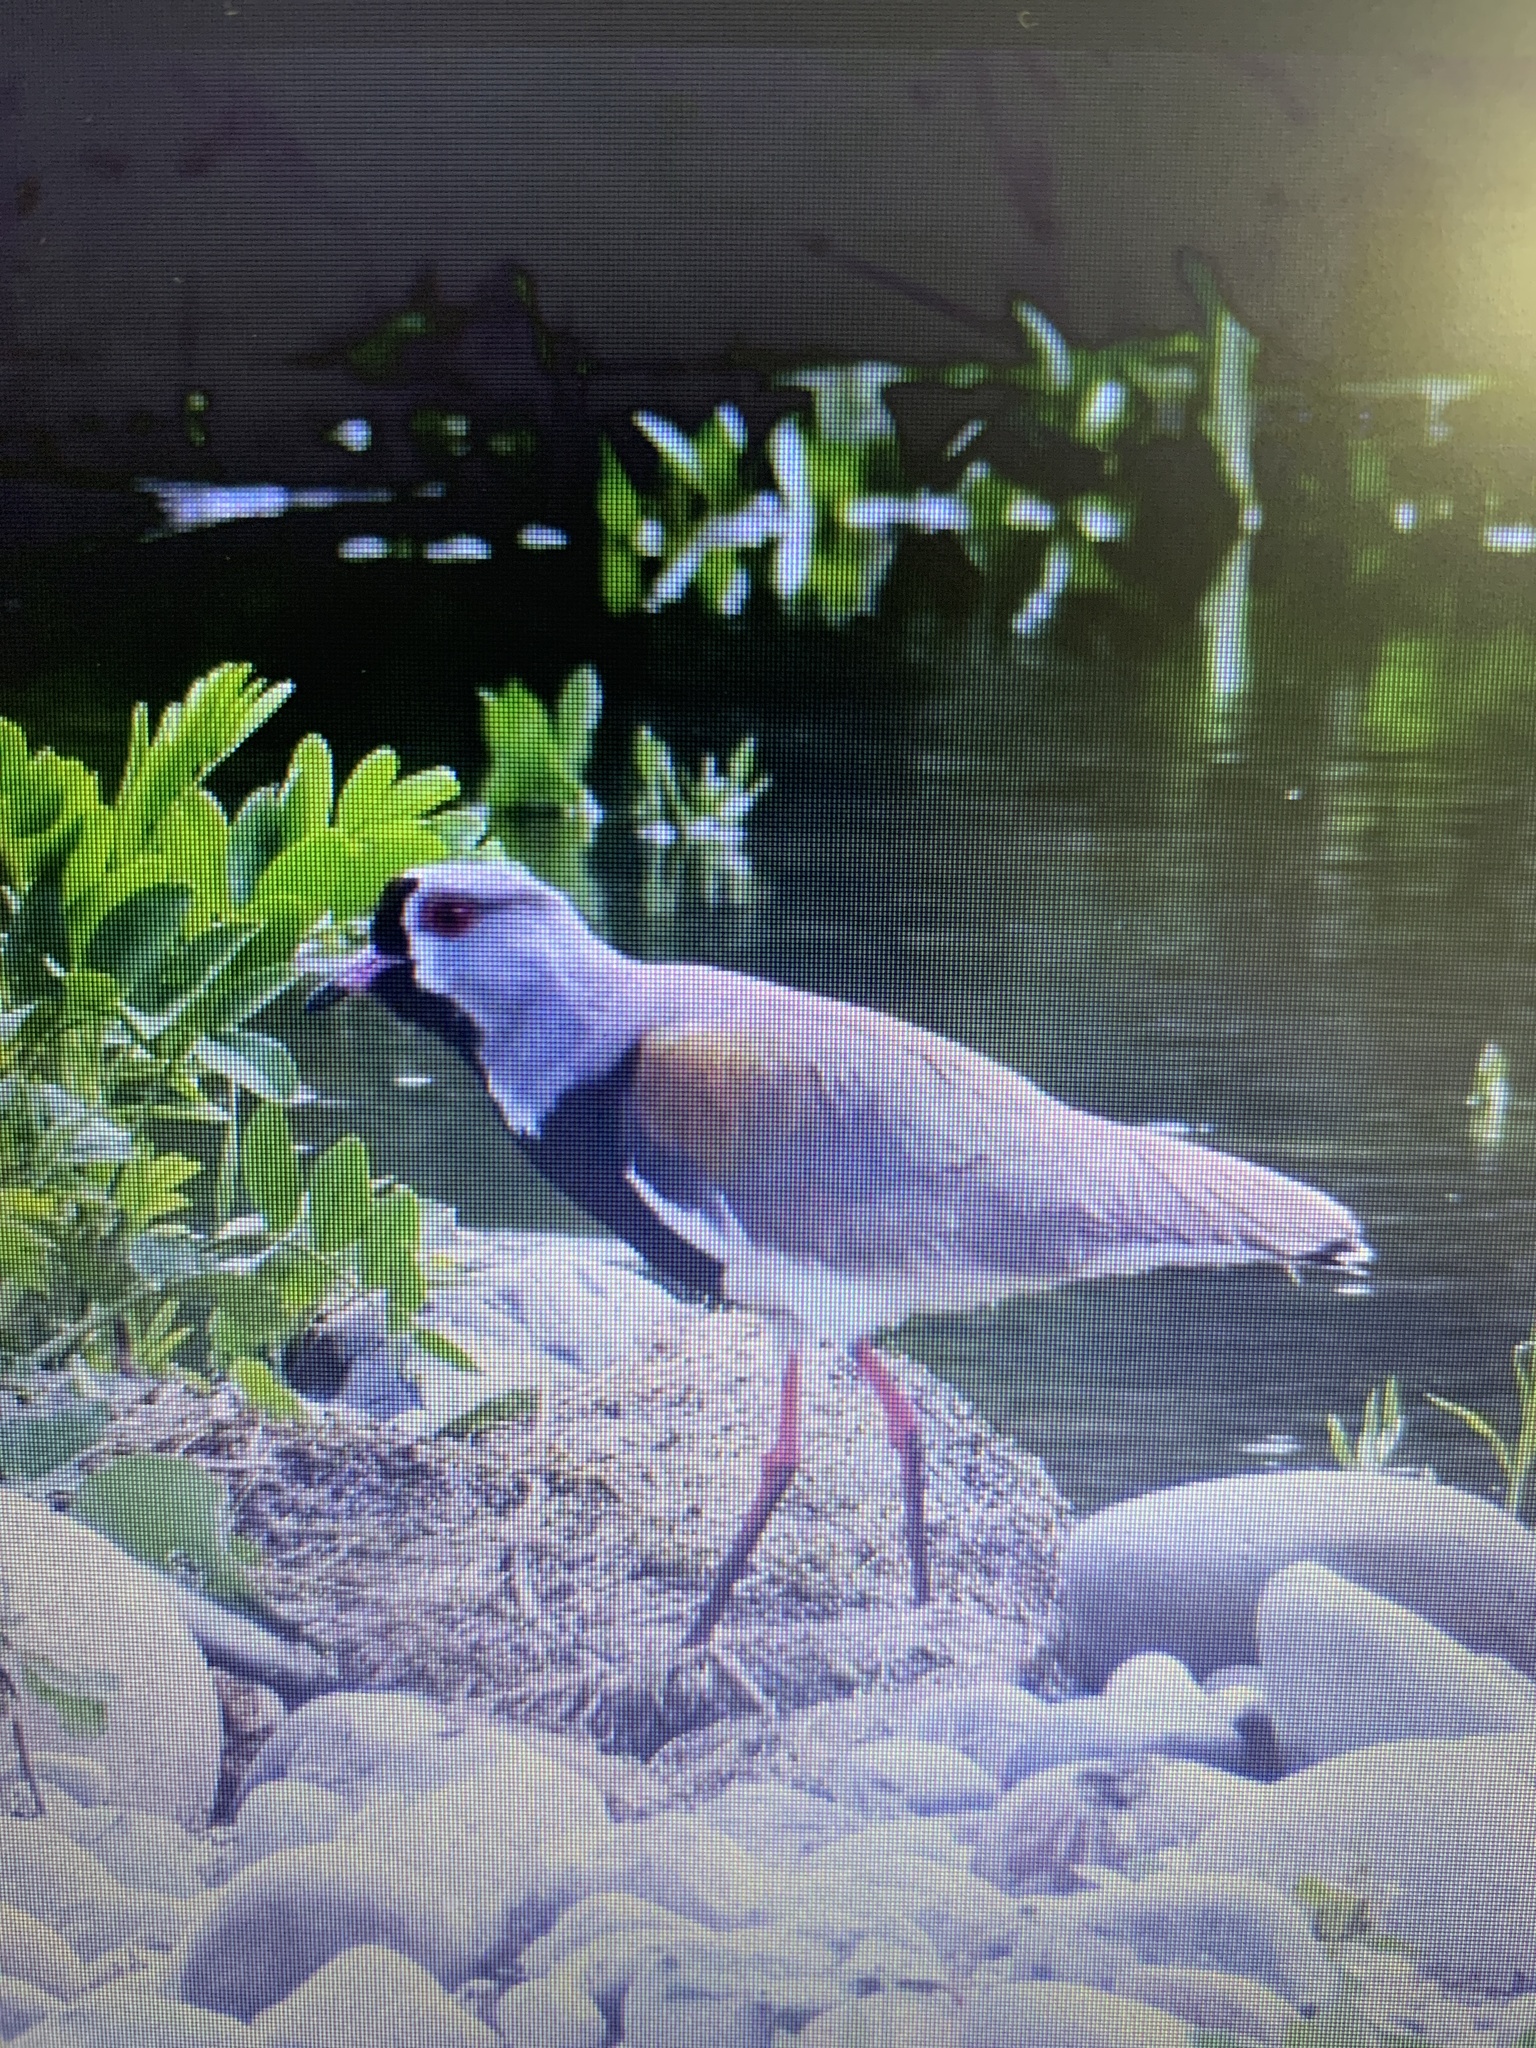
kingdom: Animalia
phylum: Chordata
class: Aves
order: Charadriiformes
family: Charadriidae
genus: Vanellus
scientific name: Vanellus chilensis
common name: Southern lapwing
